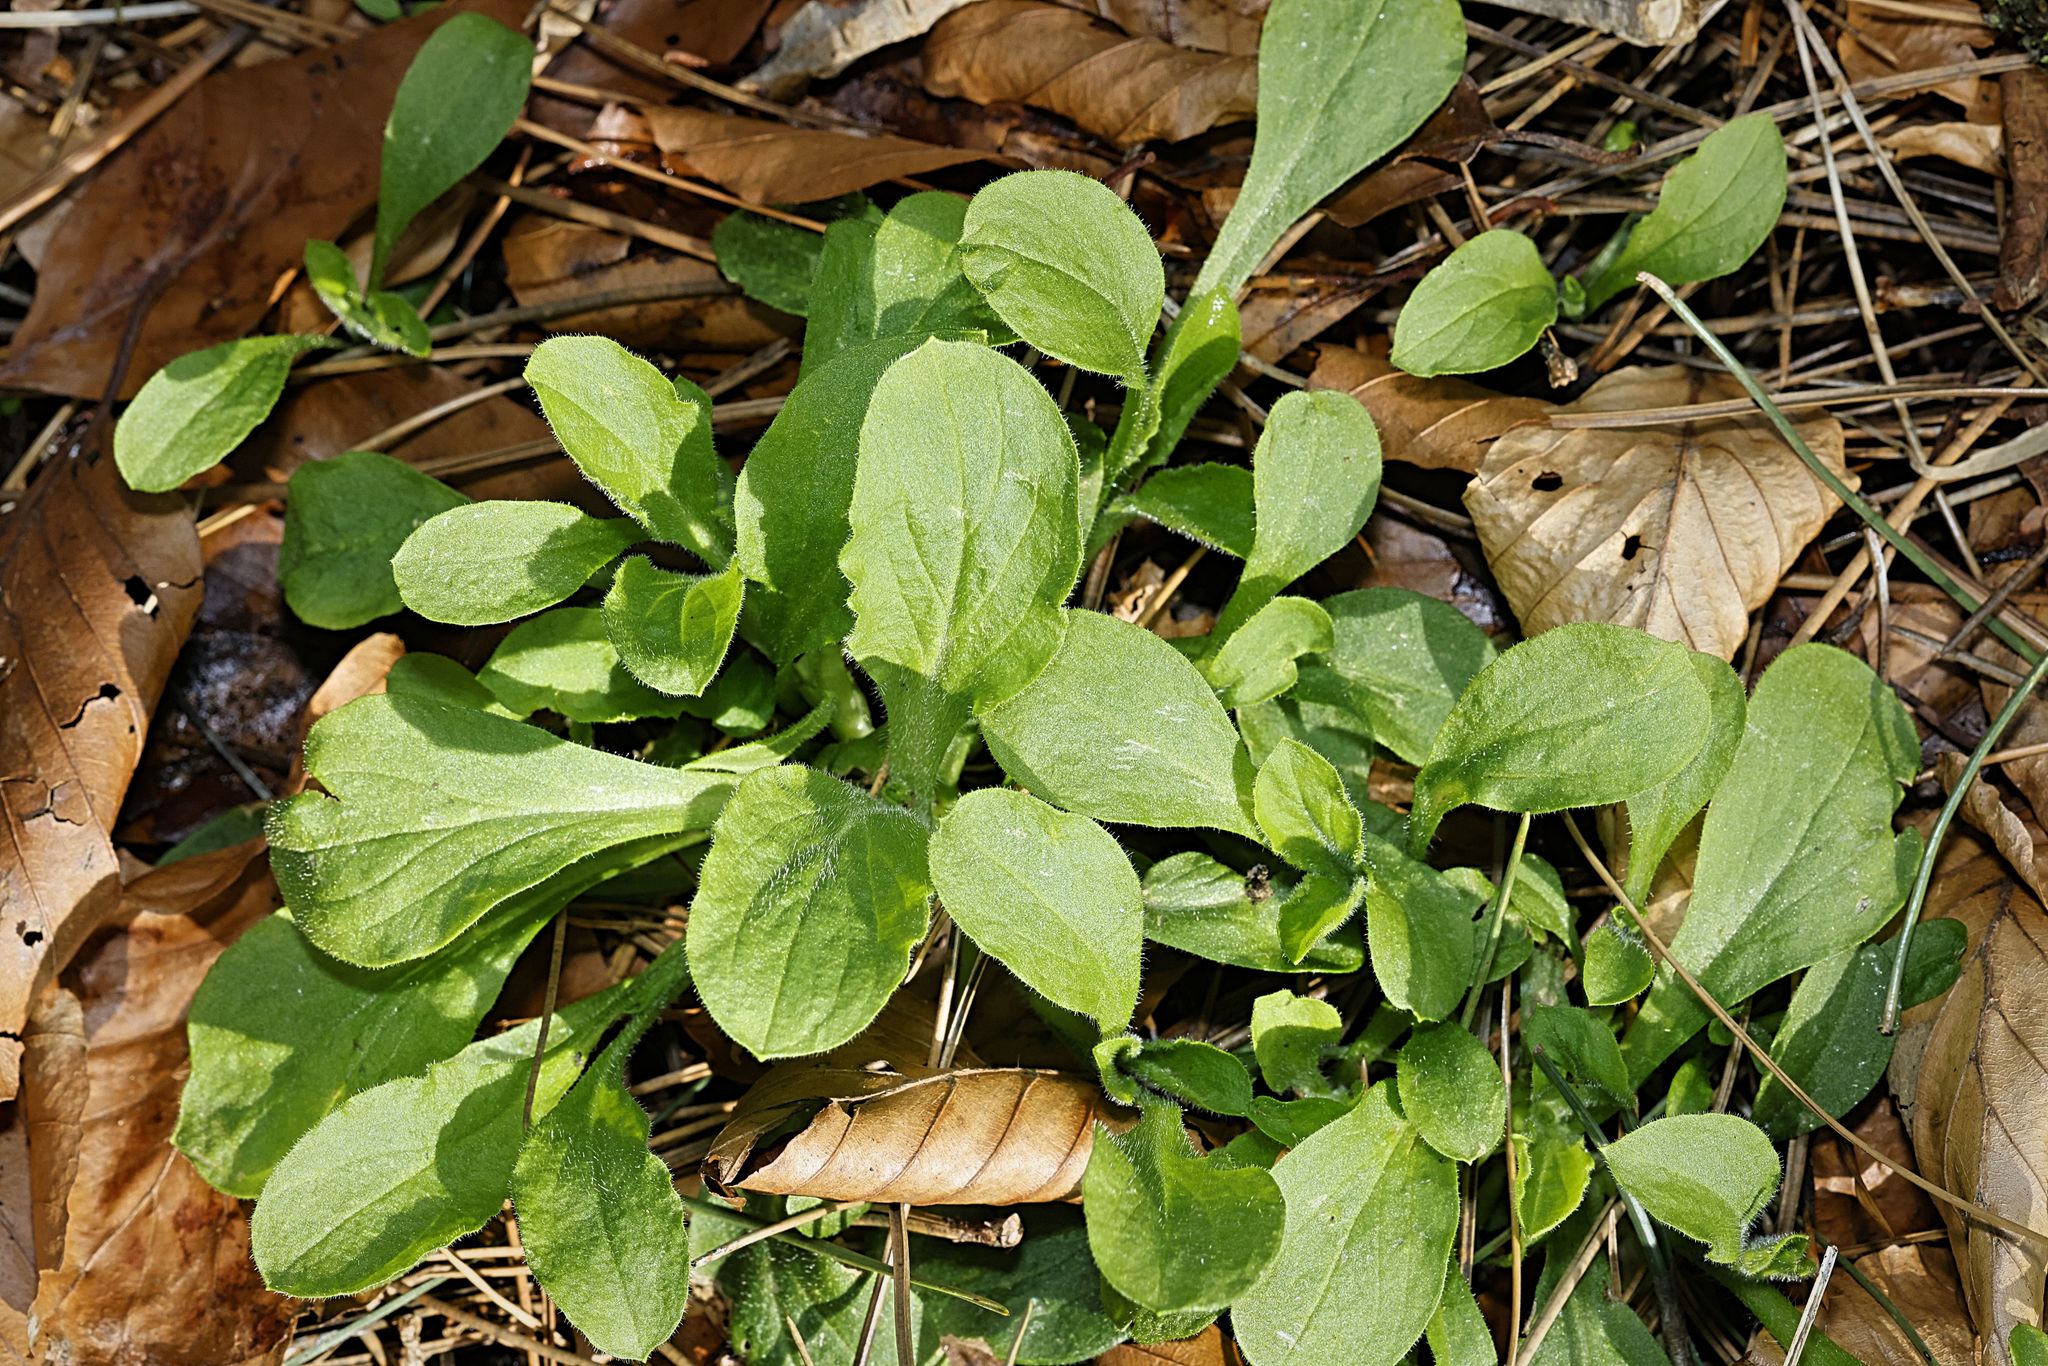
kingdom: Plantae
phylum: Tracheophyta
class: Magnoliopsida
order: Caryophyllales
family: Caryophyllaceae
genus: Silene
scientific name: Silene dioica
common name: Red campion
